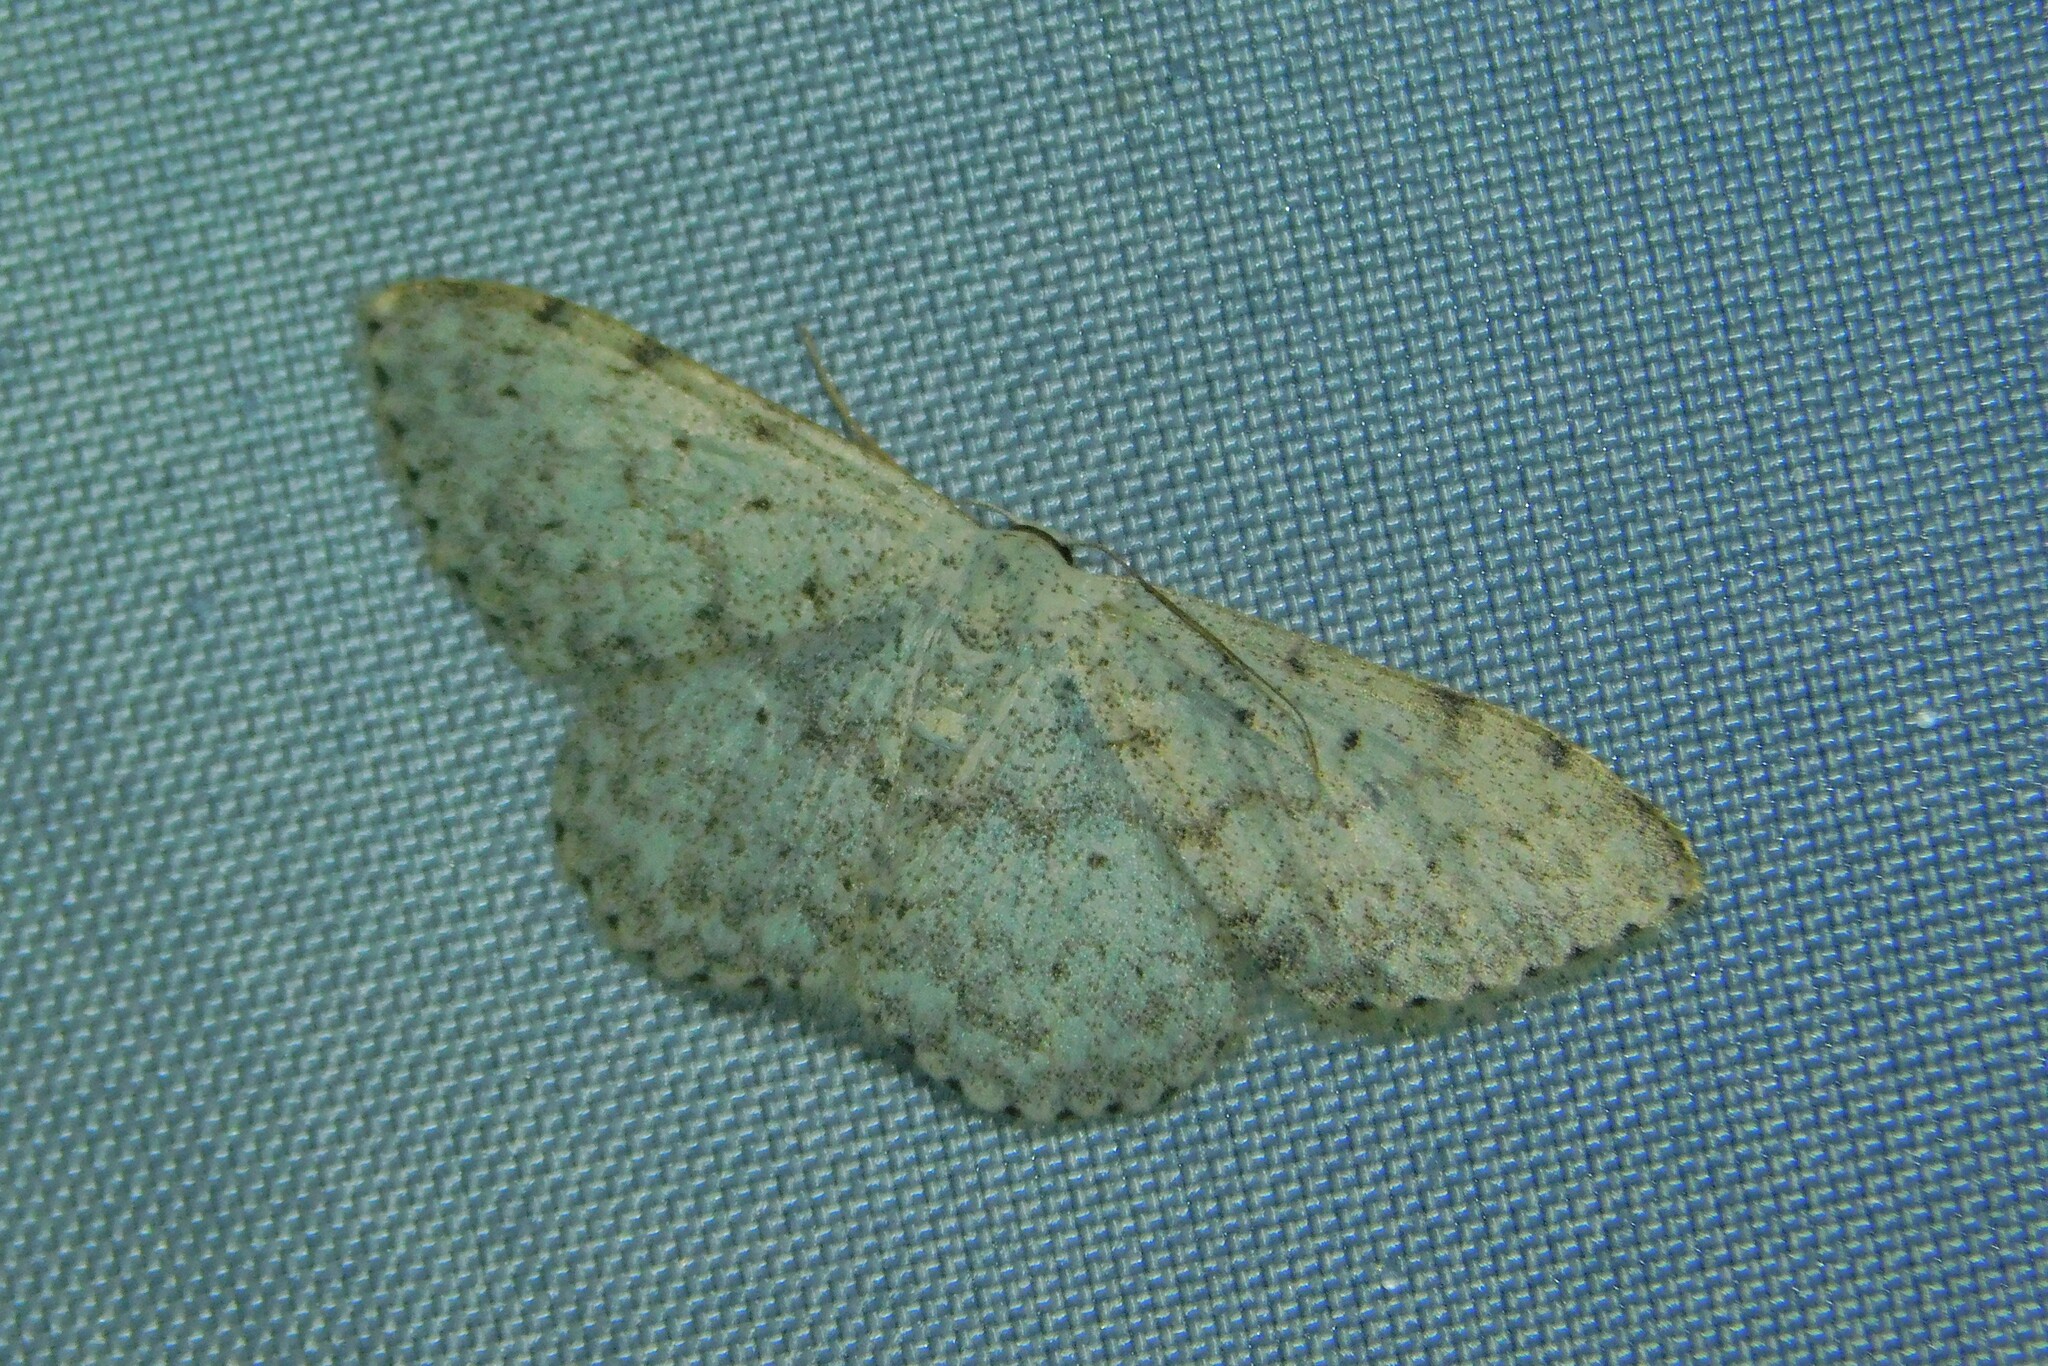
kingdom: Animalia
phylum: Arthropoda
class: Insecta
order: Lepidoptera
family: Geometridae
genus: Scopula
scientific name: Scopula marginepunctata
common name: Mullein wave
